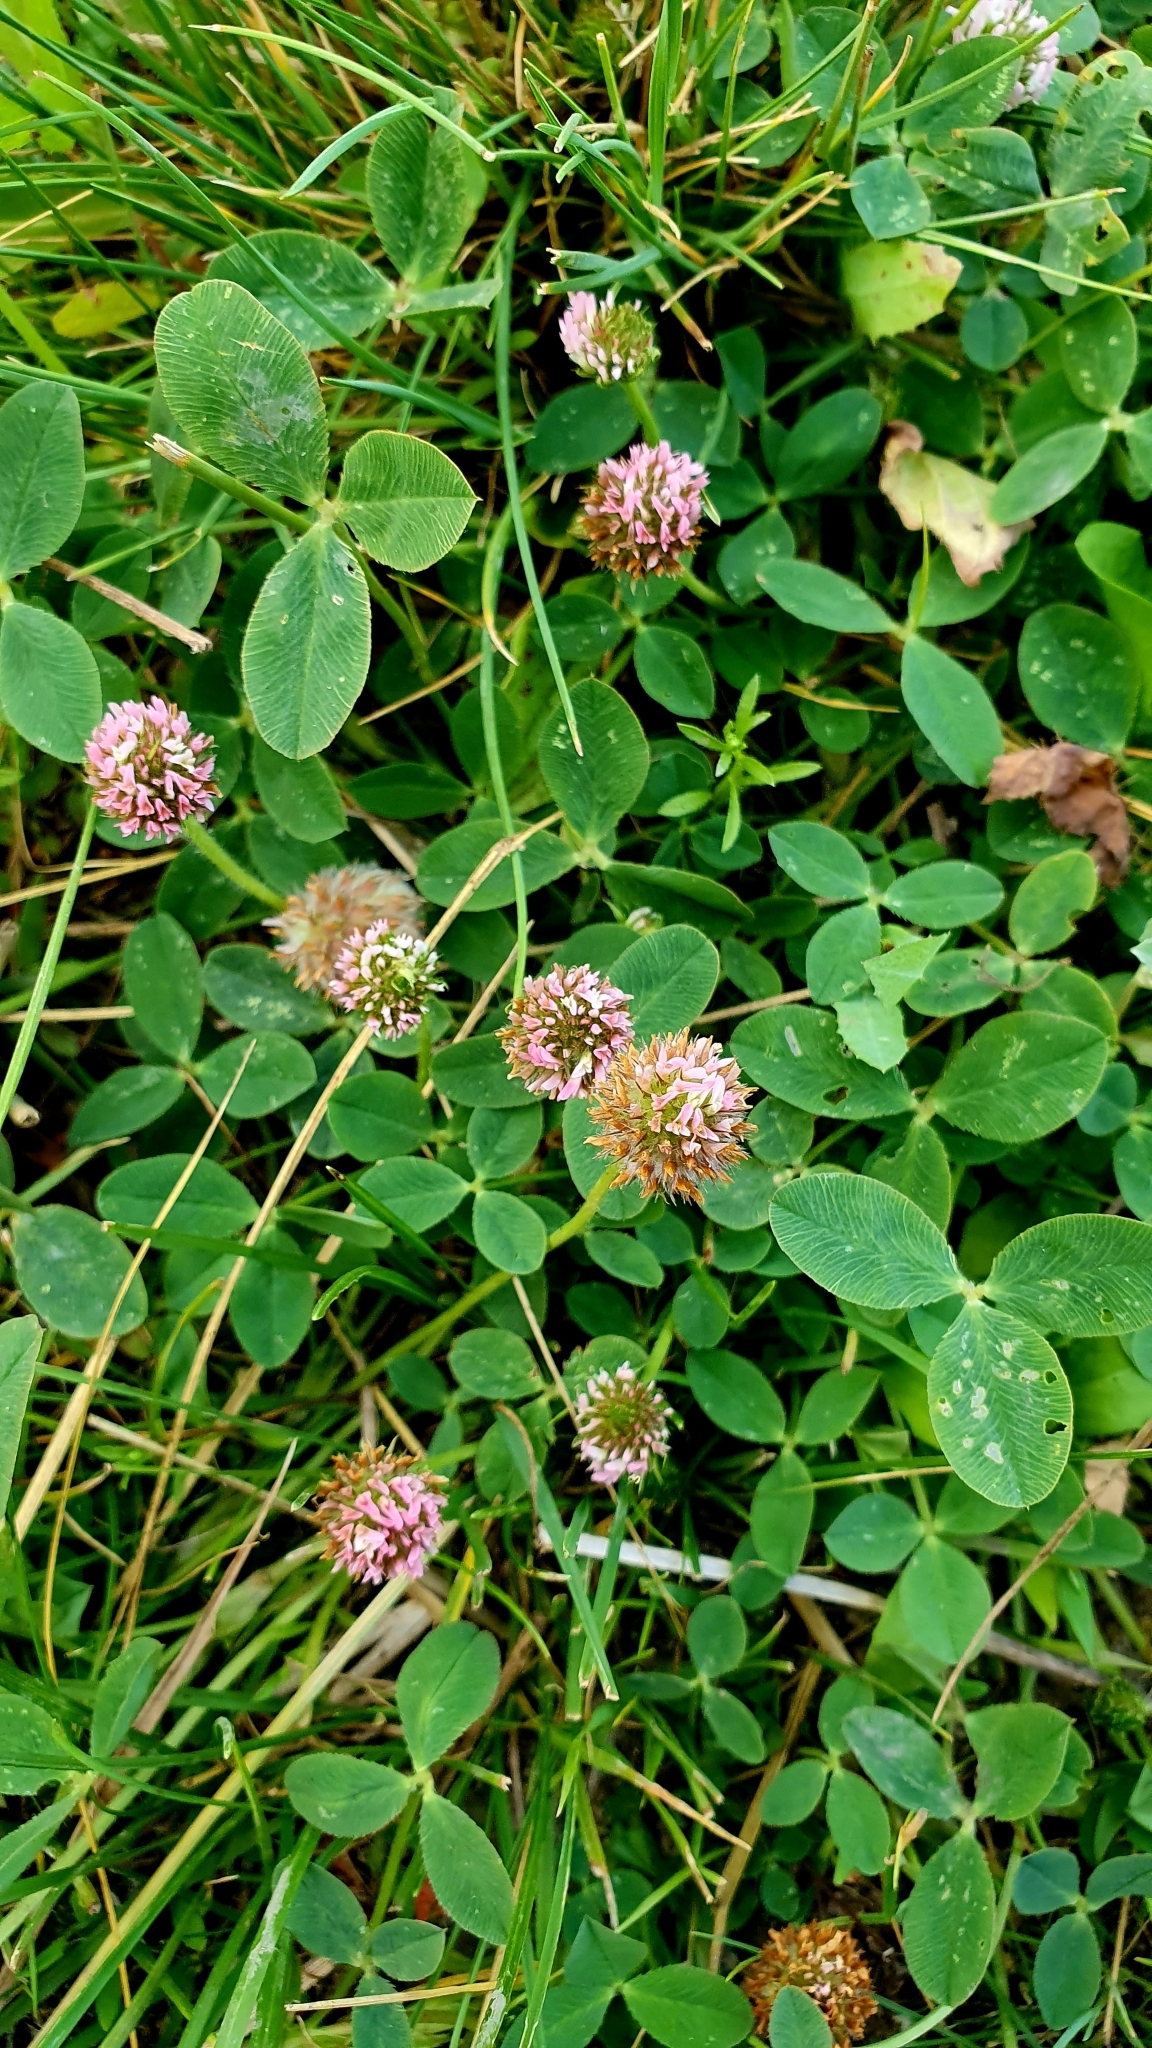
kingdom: Plantae
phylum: Tracheophyta
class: Magnoliopsida
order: Fabales
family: Fabaceae
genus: Trifolium
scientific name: Trifolium fragiferum
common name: Strawberry clover
